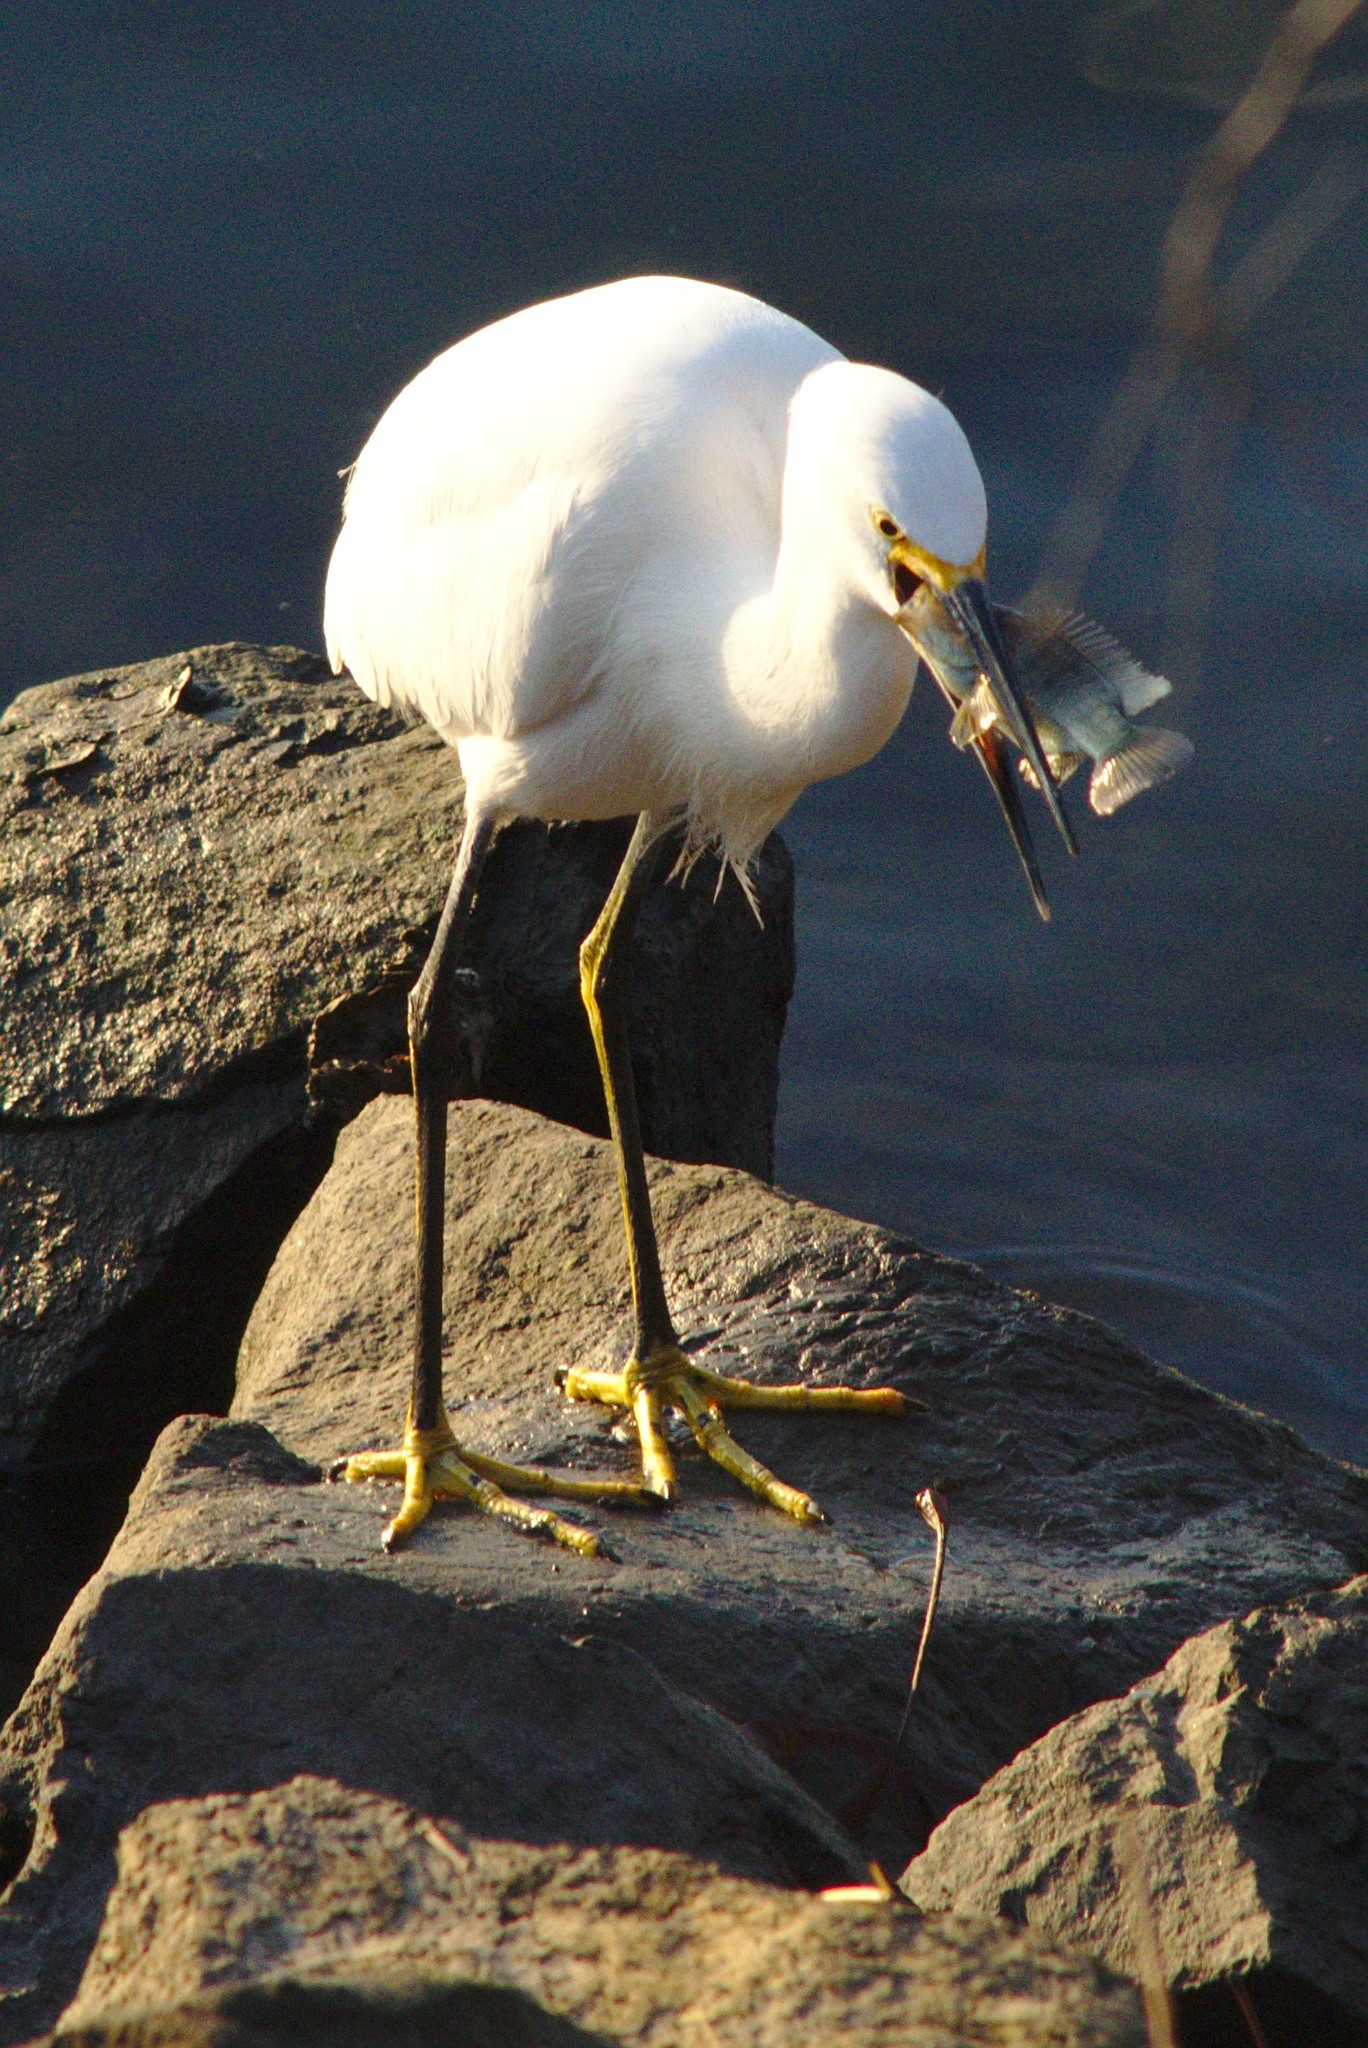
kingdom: Animalia
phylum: Chordata
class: Aves
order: Pelecaniformes
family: Ardeidae
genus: Egretta
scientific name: Egretta thula
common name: Snowy egret
